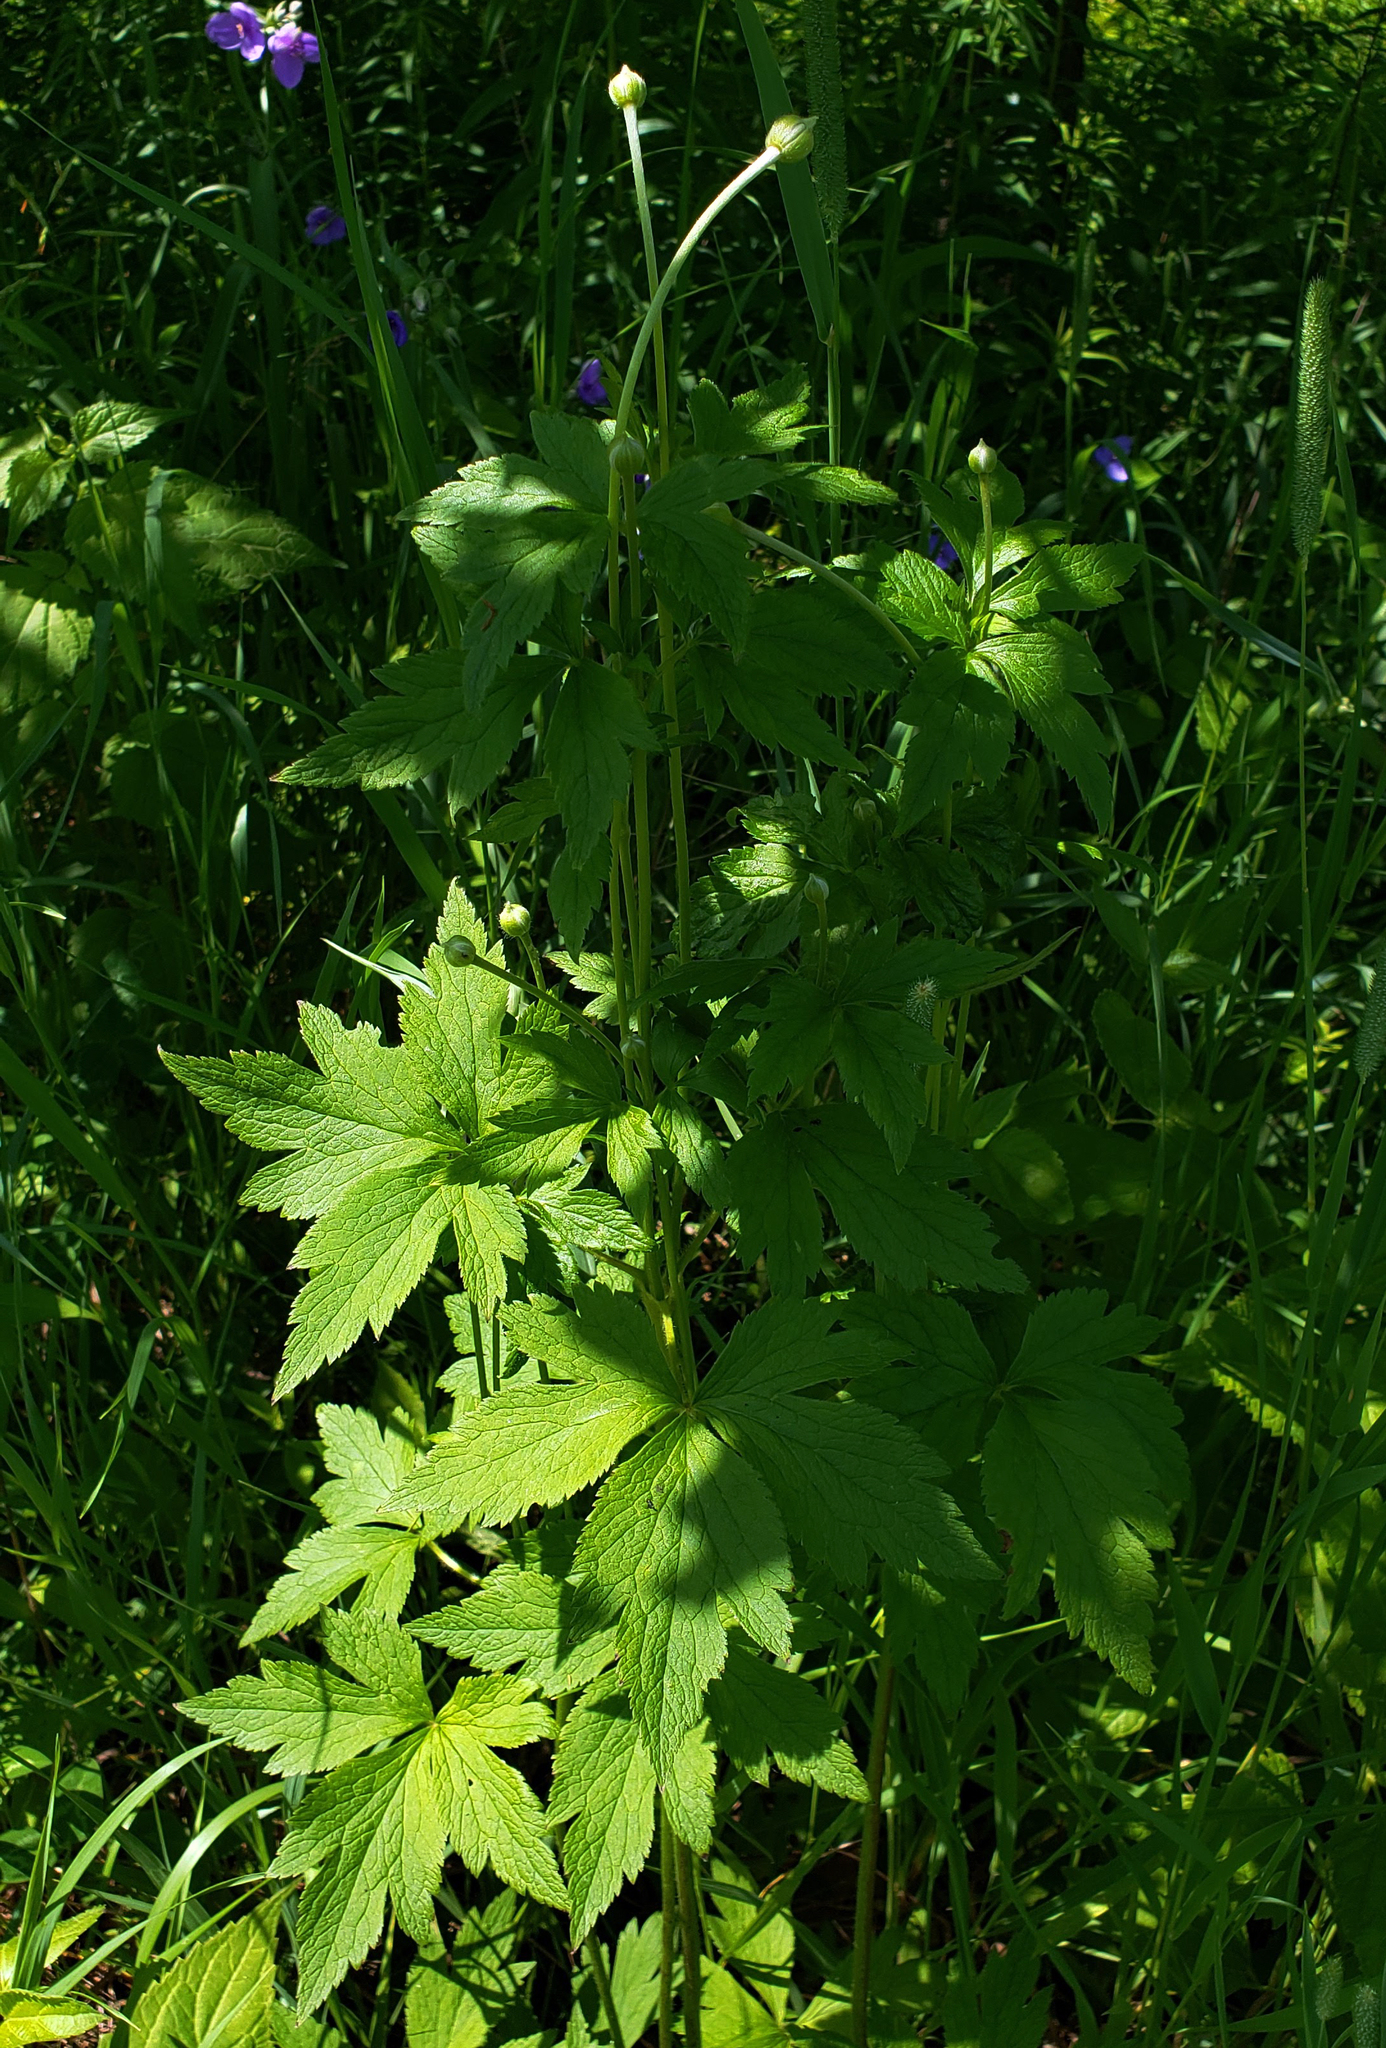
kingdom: Plantae
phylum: Tracheophyta
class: Magnoliopsida
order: Ranunculales
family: Ranunculaceae
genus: Anemone
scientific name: Anemone virginiana
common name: Tall anemone
